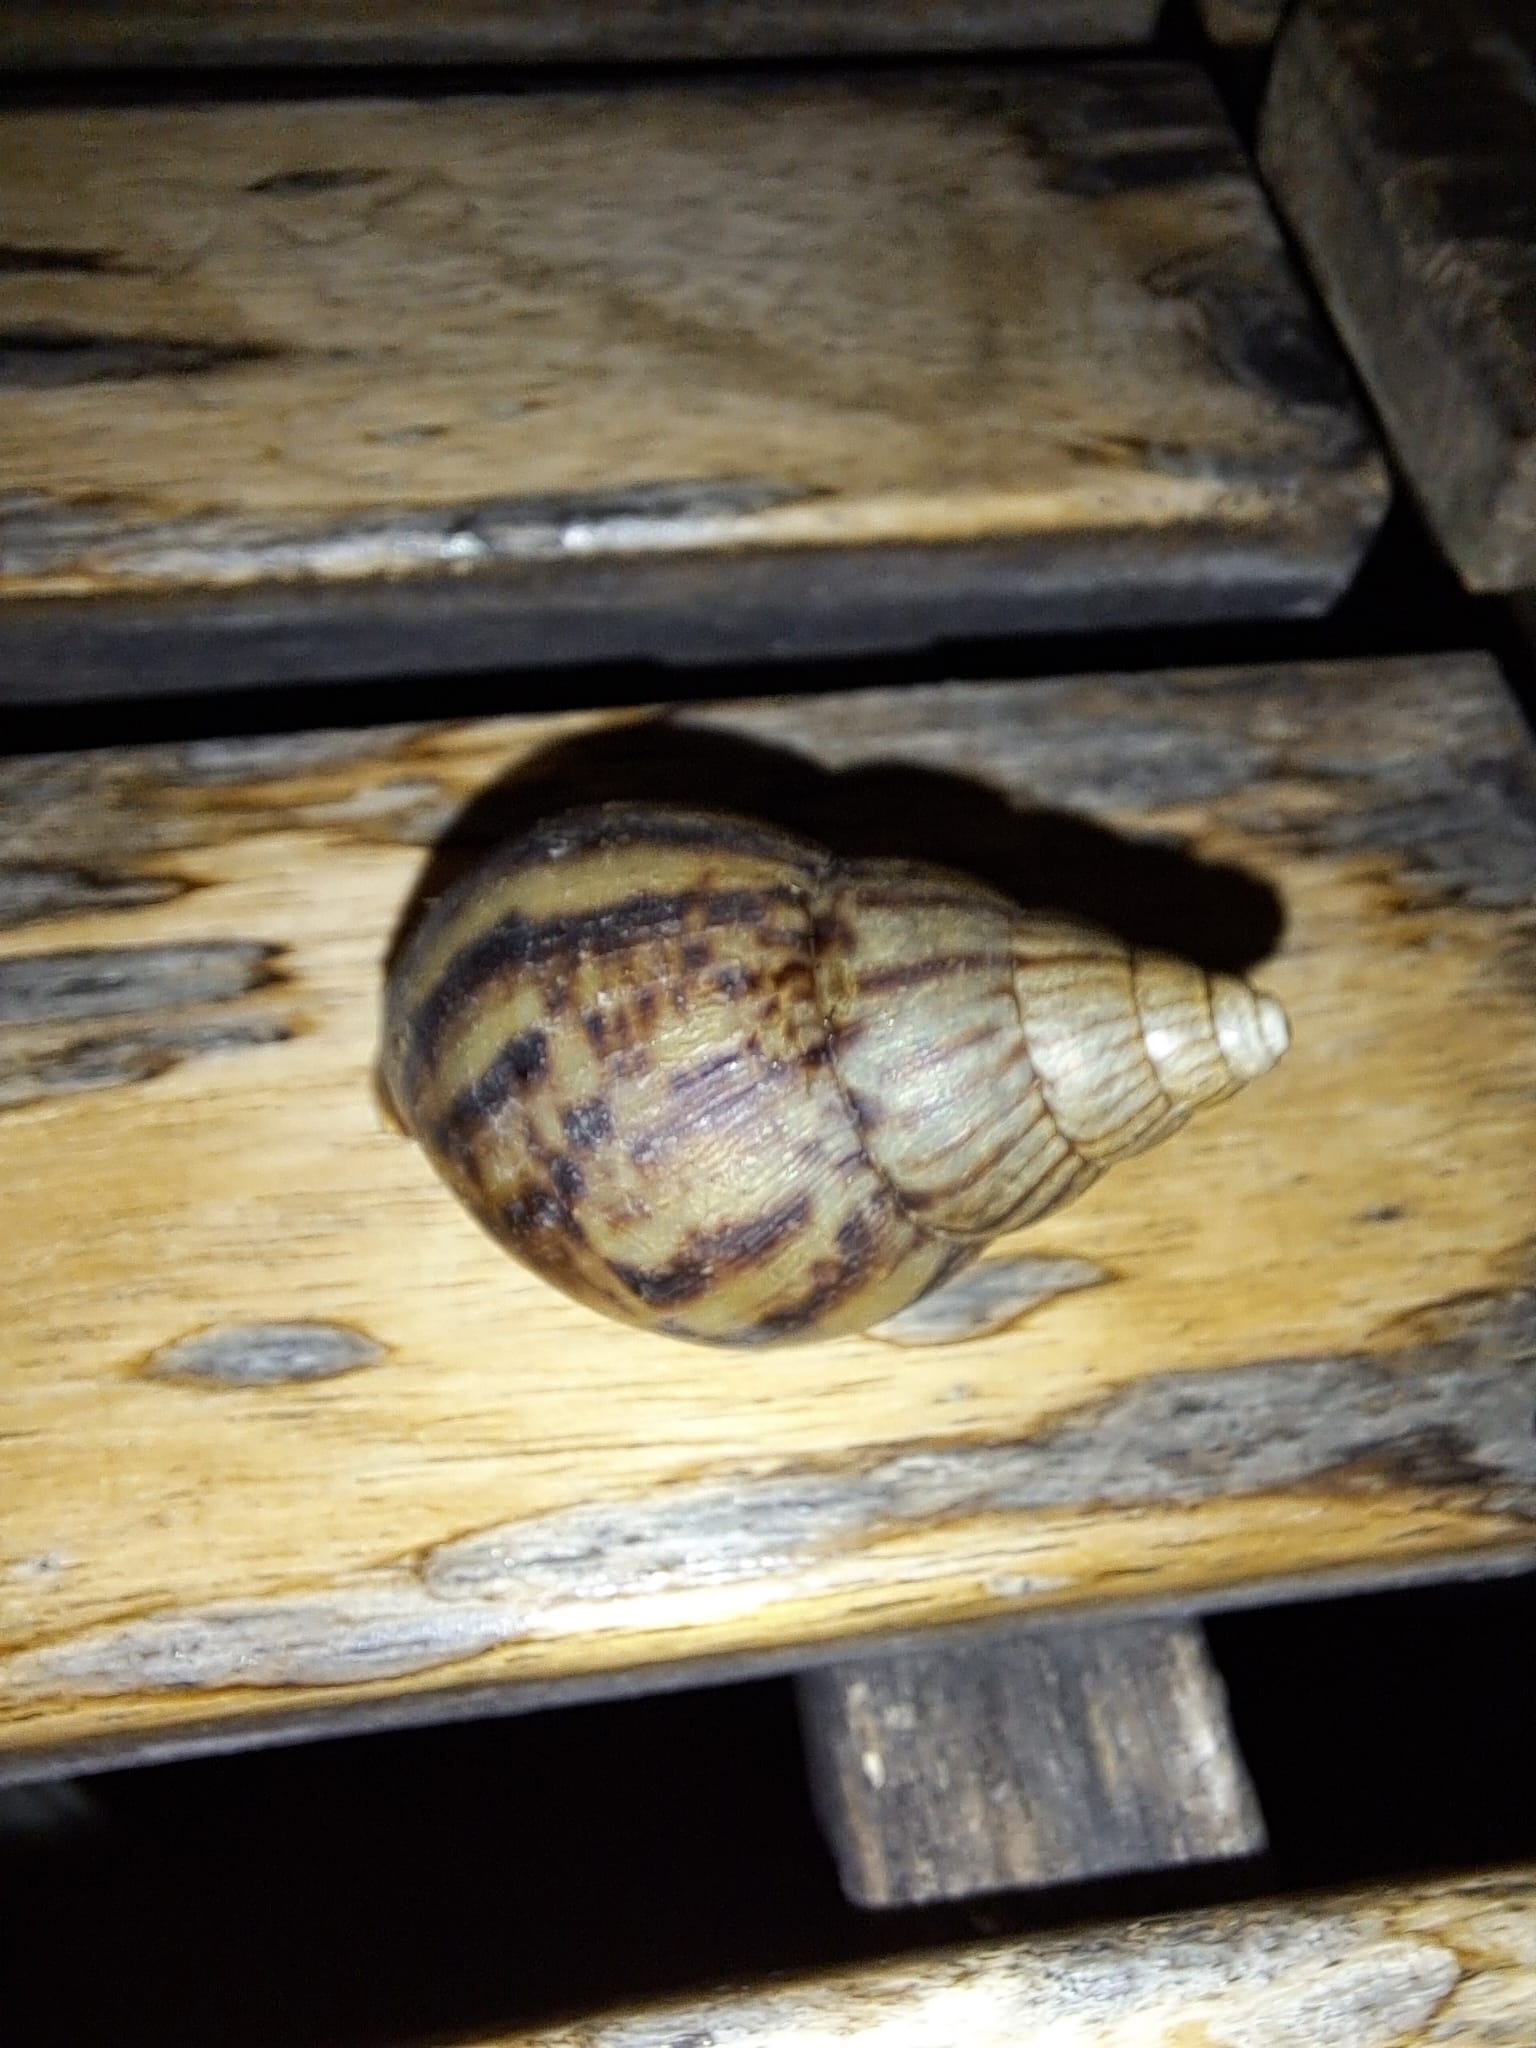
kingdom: Animalia
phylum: Mollusca
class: Gastropoda
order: Stylommatophora
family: Achatinidae
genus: Lissachatina
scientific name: Lissachatina fulica
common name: Giant african snail
